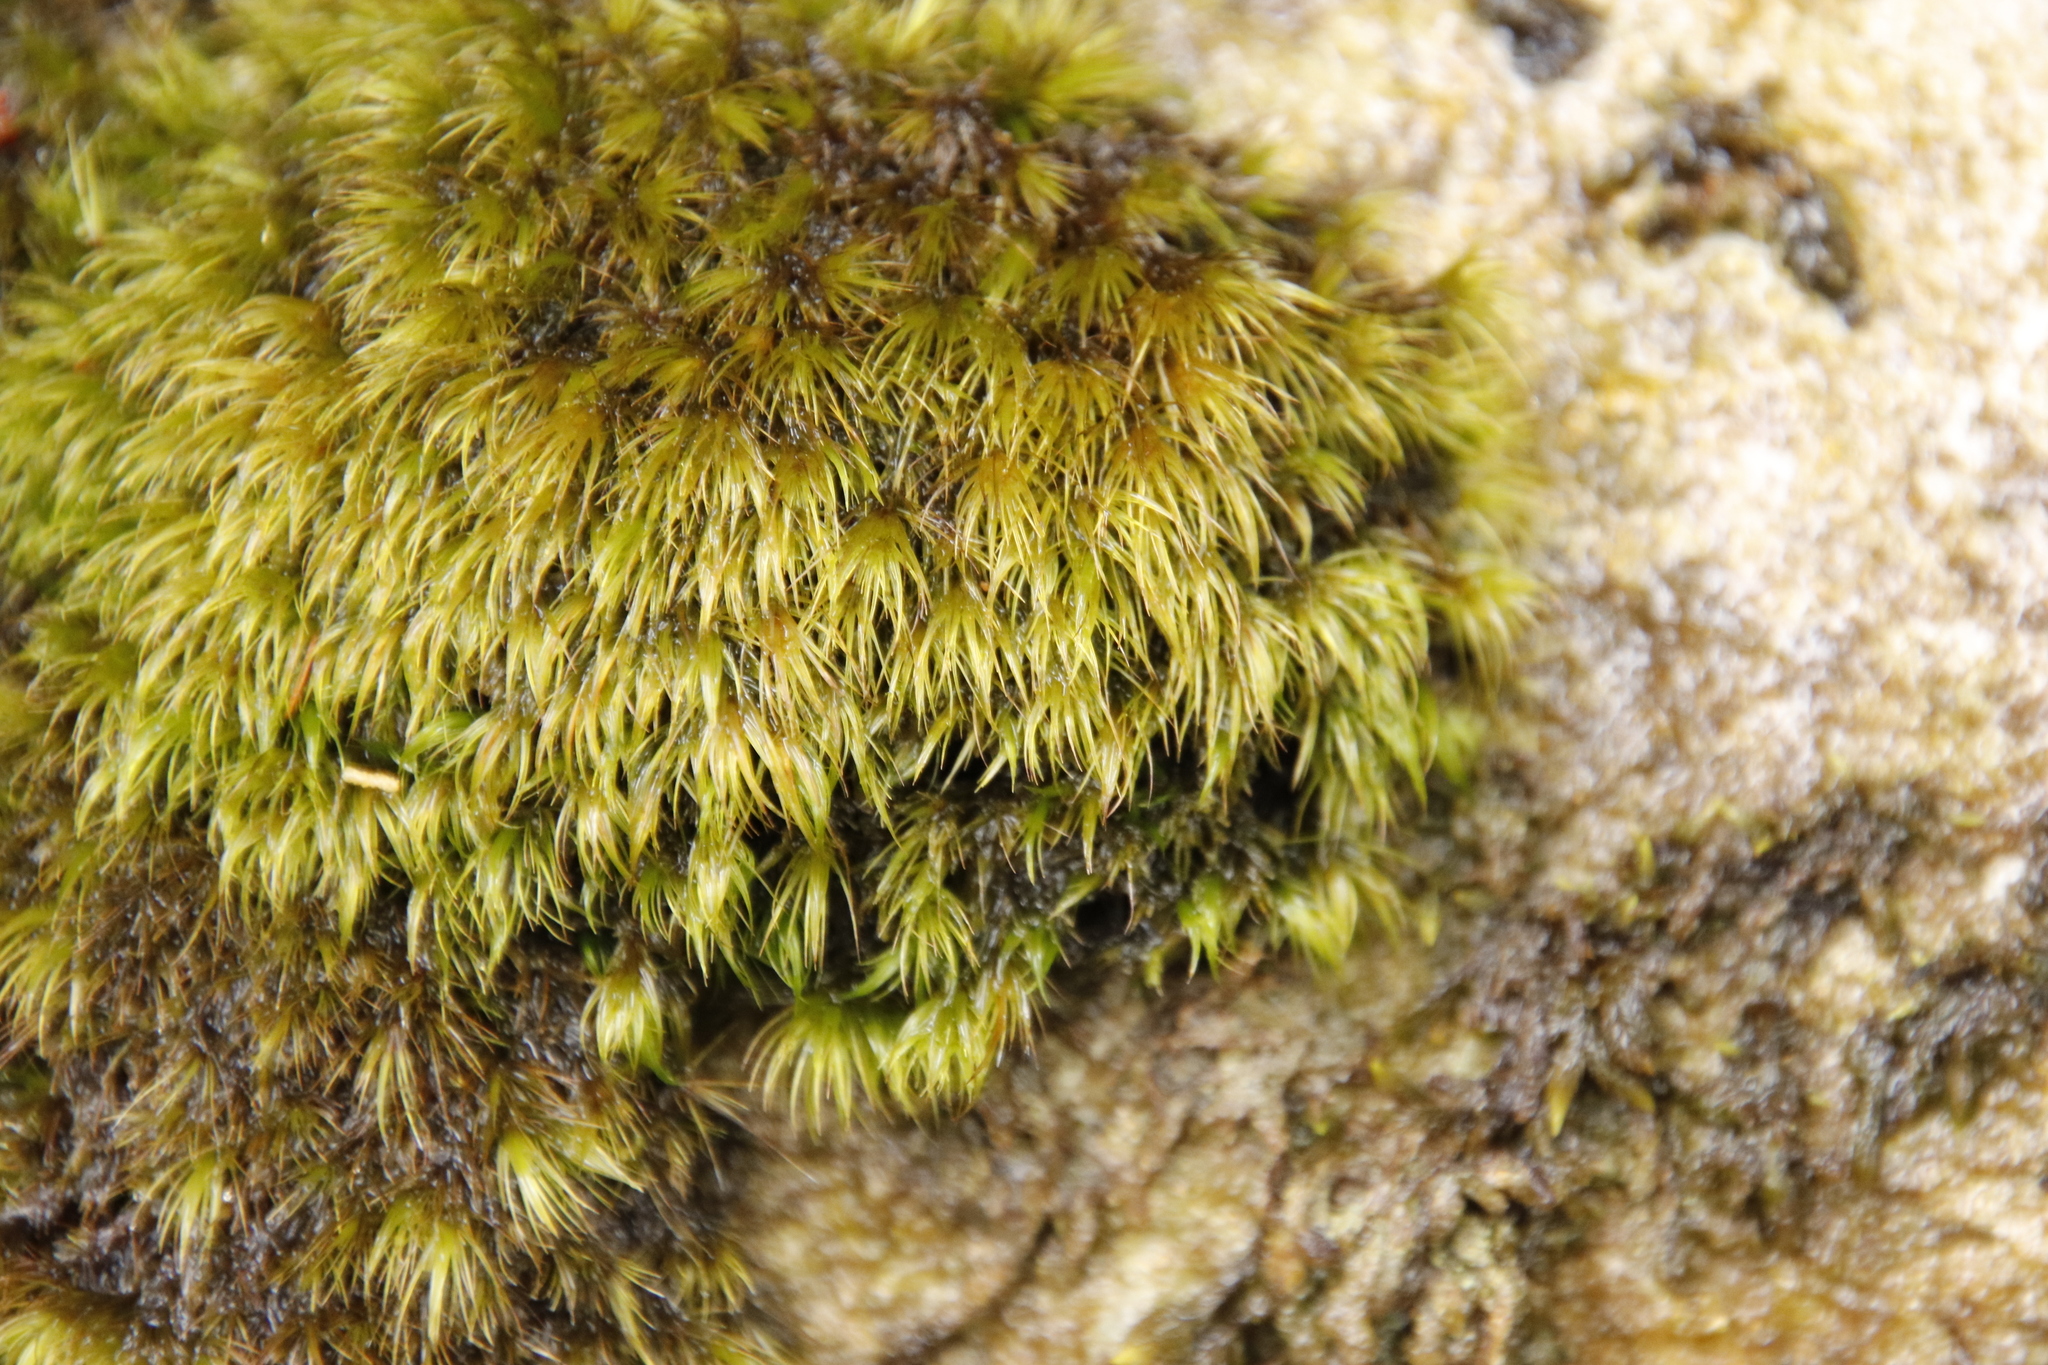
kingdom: Plantae
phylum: Bryophyta
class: Bryopsida
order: Dicranales
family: Dicranaceae
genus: Leucoloma
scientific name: Leucoloma sprengelianum
